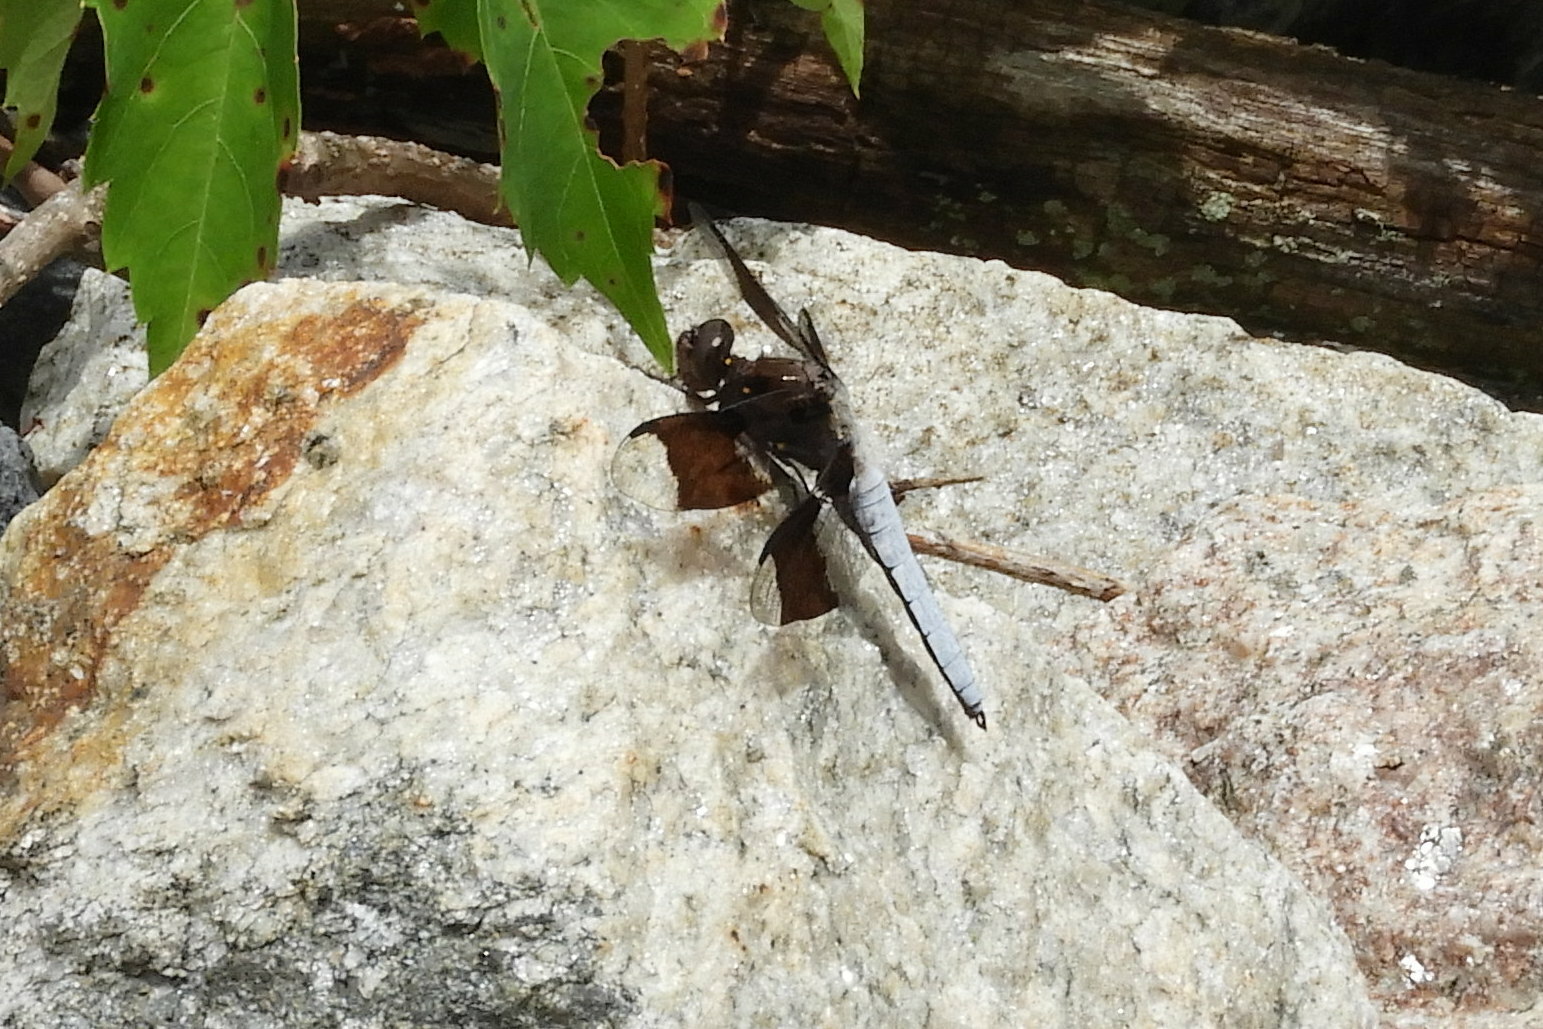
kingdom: Animalia
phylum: Arthropoda
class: Insecta
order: Odonata
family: Libellulidae
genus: Plathemis
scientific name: Plathemis lydia
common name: Common whitetail
